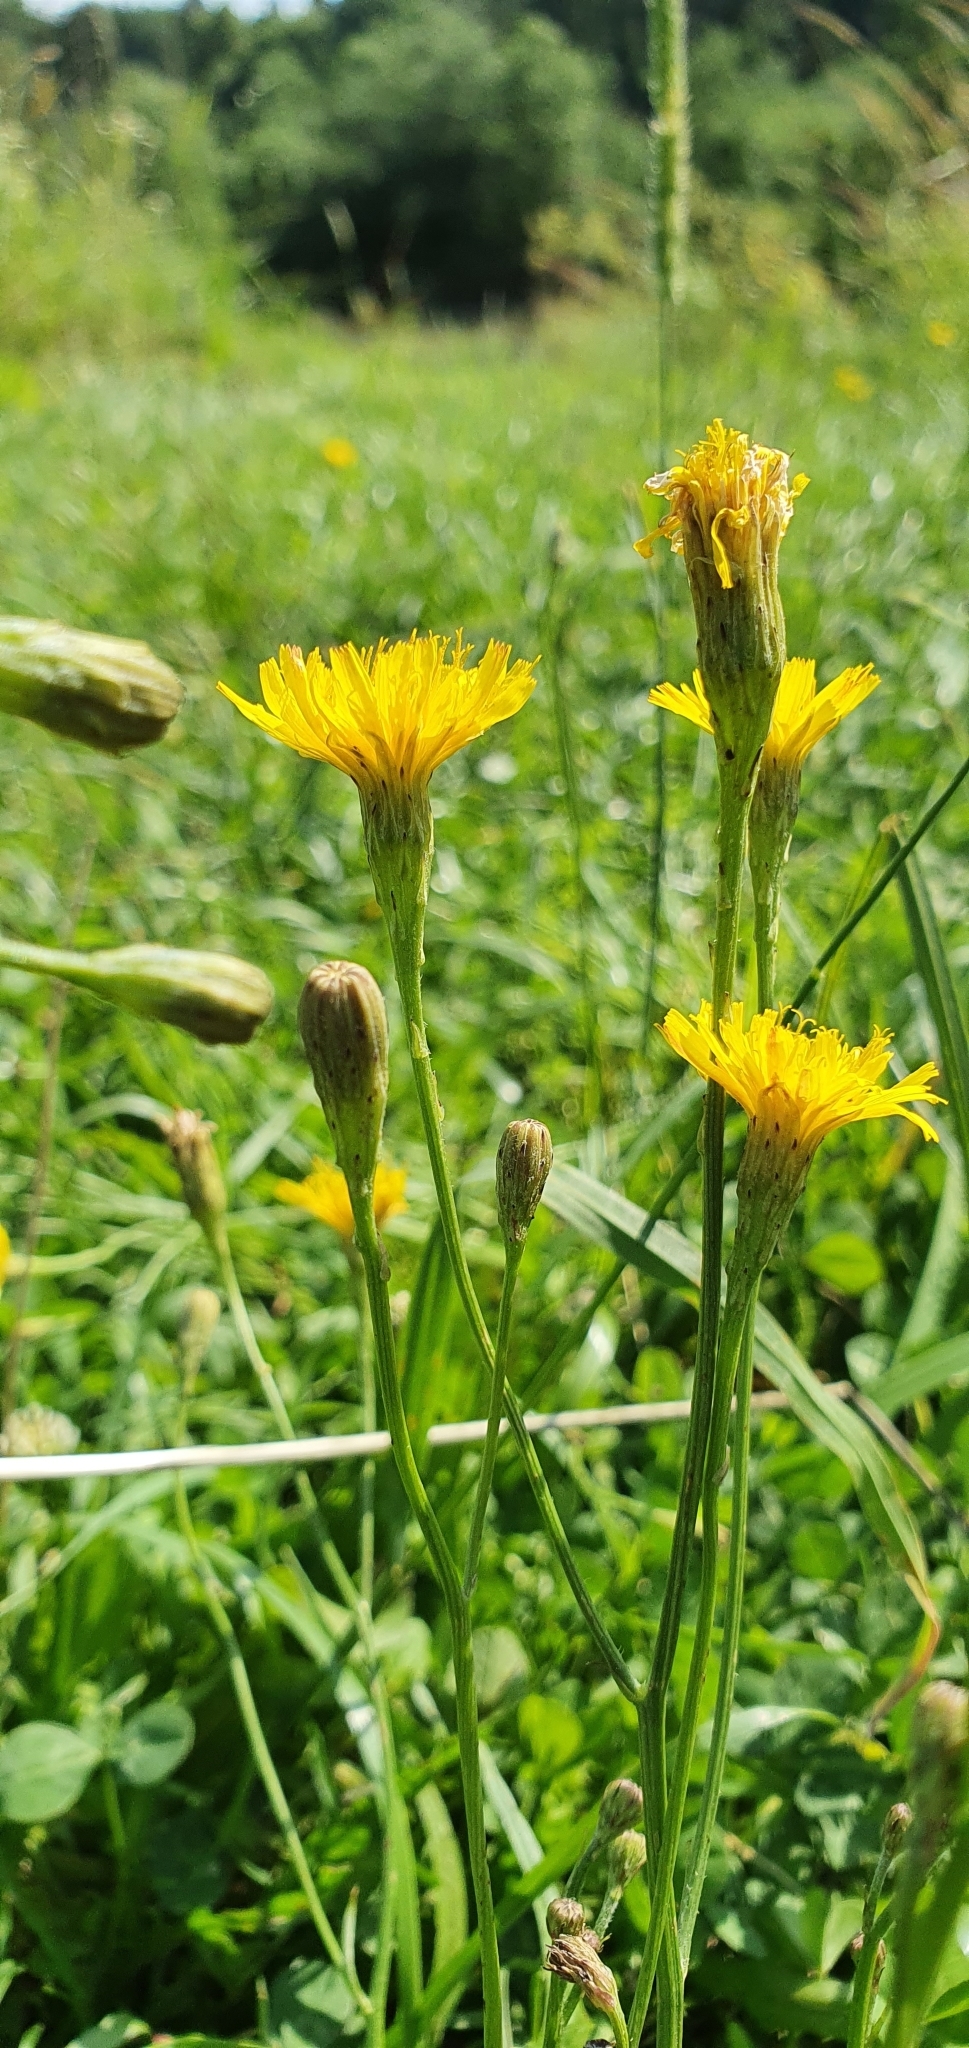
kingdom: Plantae
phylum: Tracheophyta
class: Magnoliopsida
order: Asterales
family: Asteraceae
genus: Scorzoneroides
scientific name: Scorzoneroides autumnalis
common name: Autumn hawkbit
